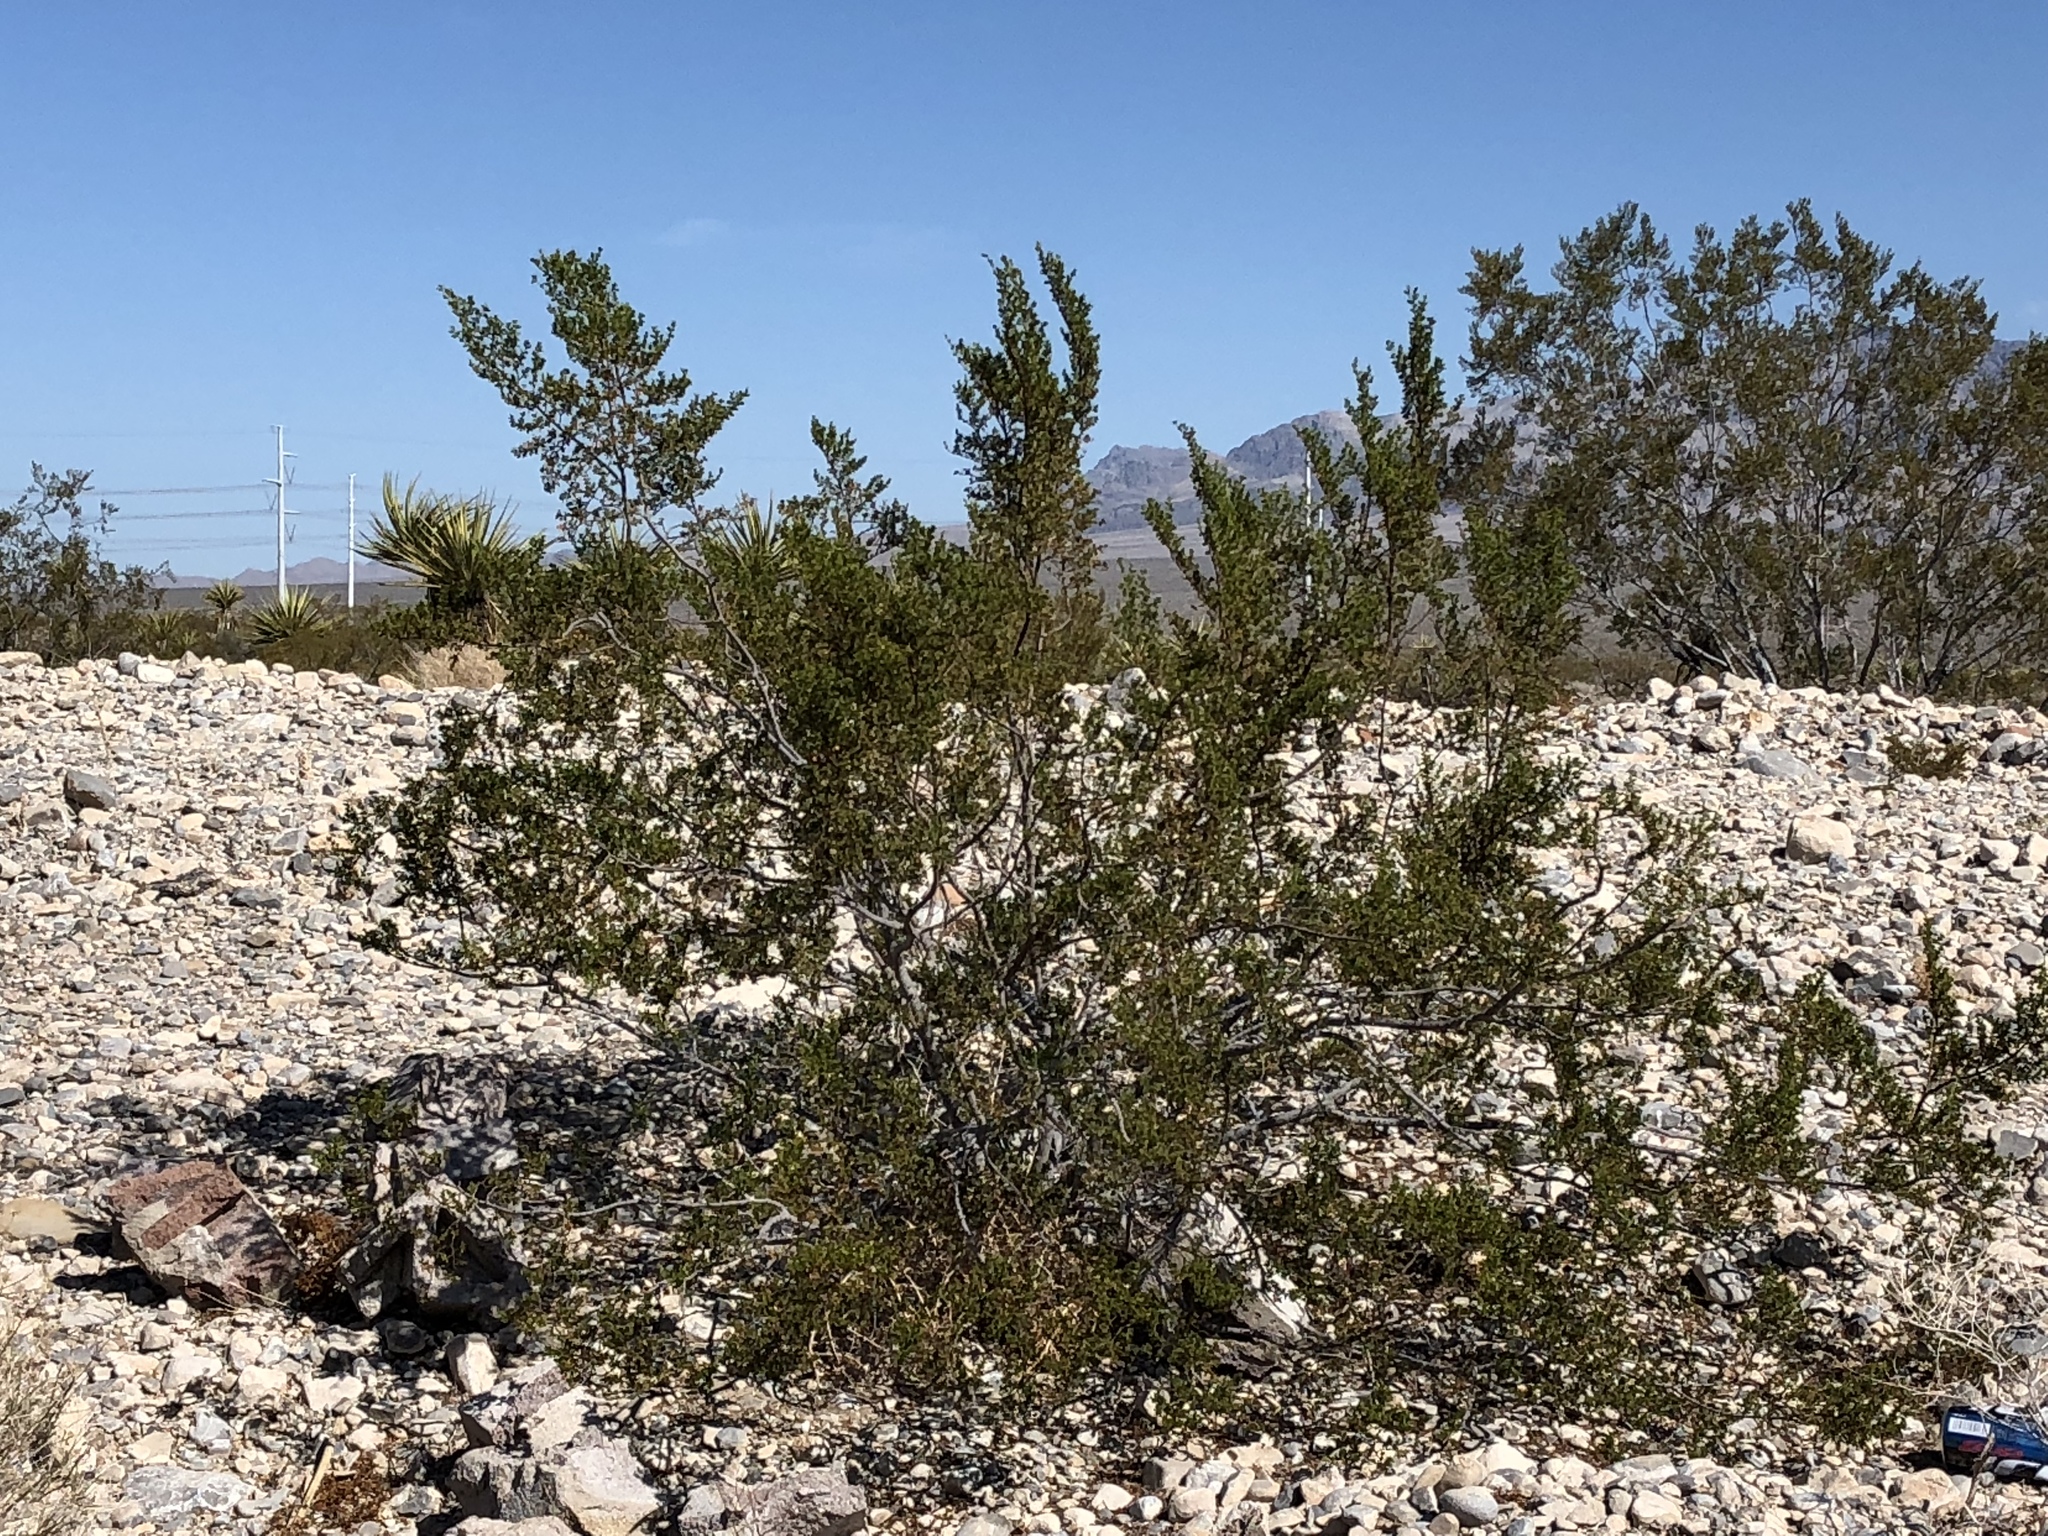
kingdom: Plantae
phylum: Tracheophyta
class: Magnoliopsida
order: Zygophyllales
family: Zygophyllaceae
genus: Larrea
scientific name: Larrea tridentata
